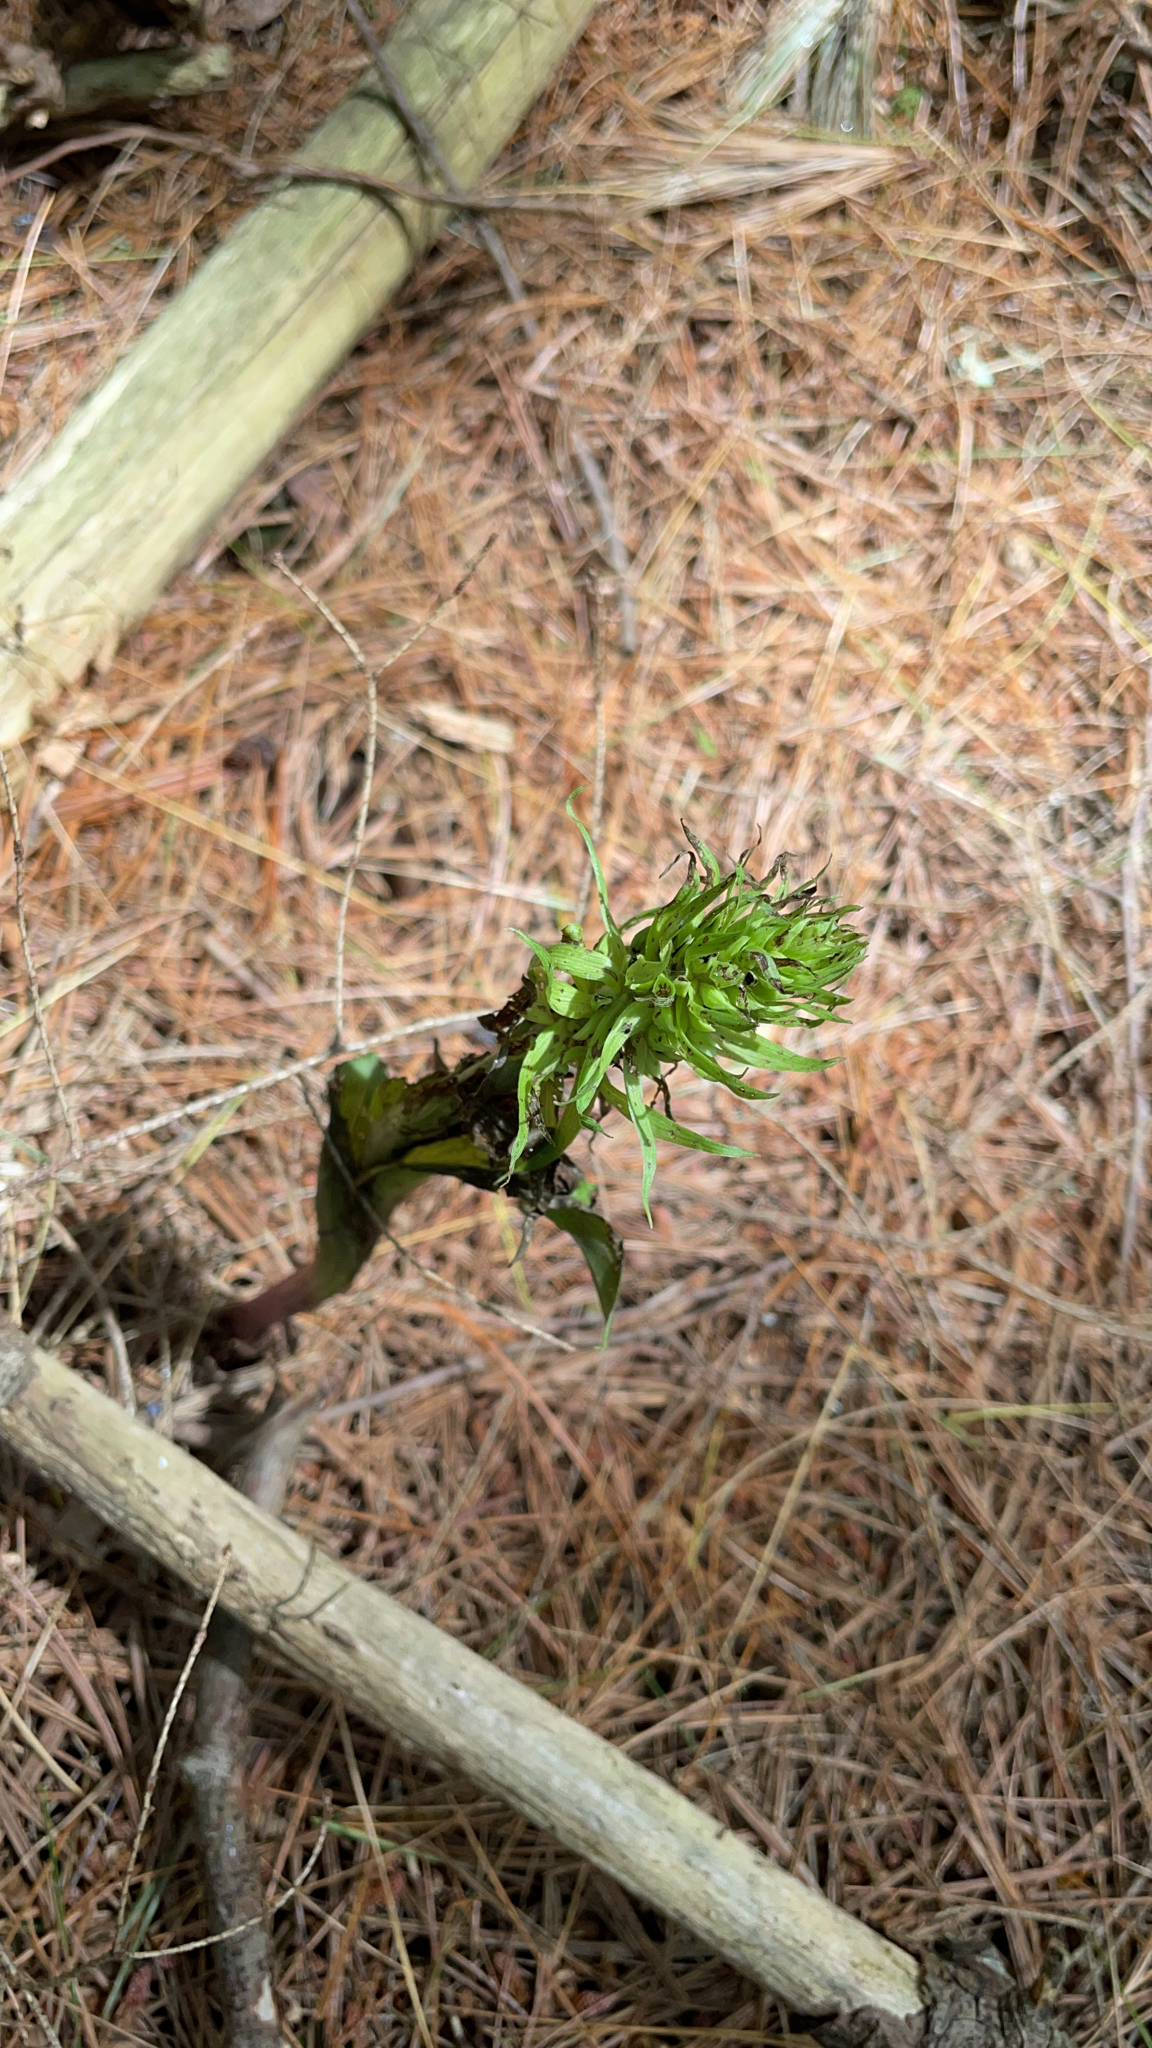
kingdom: Plantae
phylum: Tracheophyta
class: Liliopsida
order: Asparagales
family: Orchidaceae
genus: Epipactis
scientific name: Epipactis helleborine
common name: Broad-leaved helleborine
